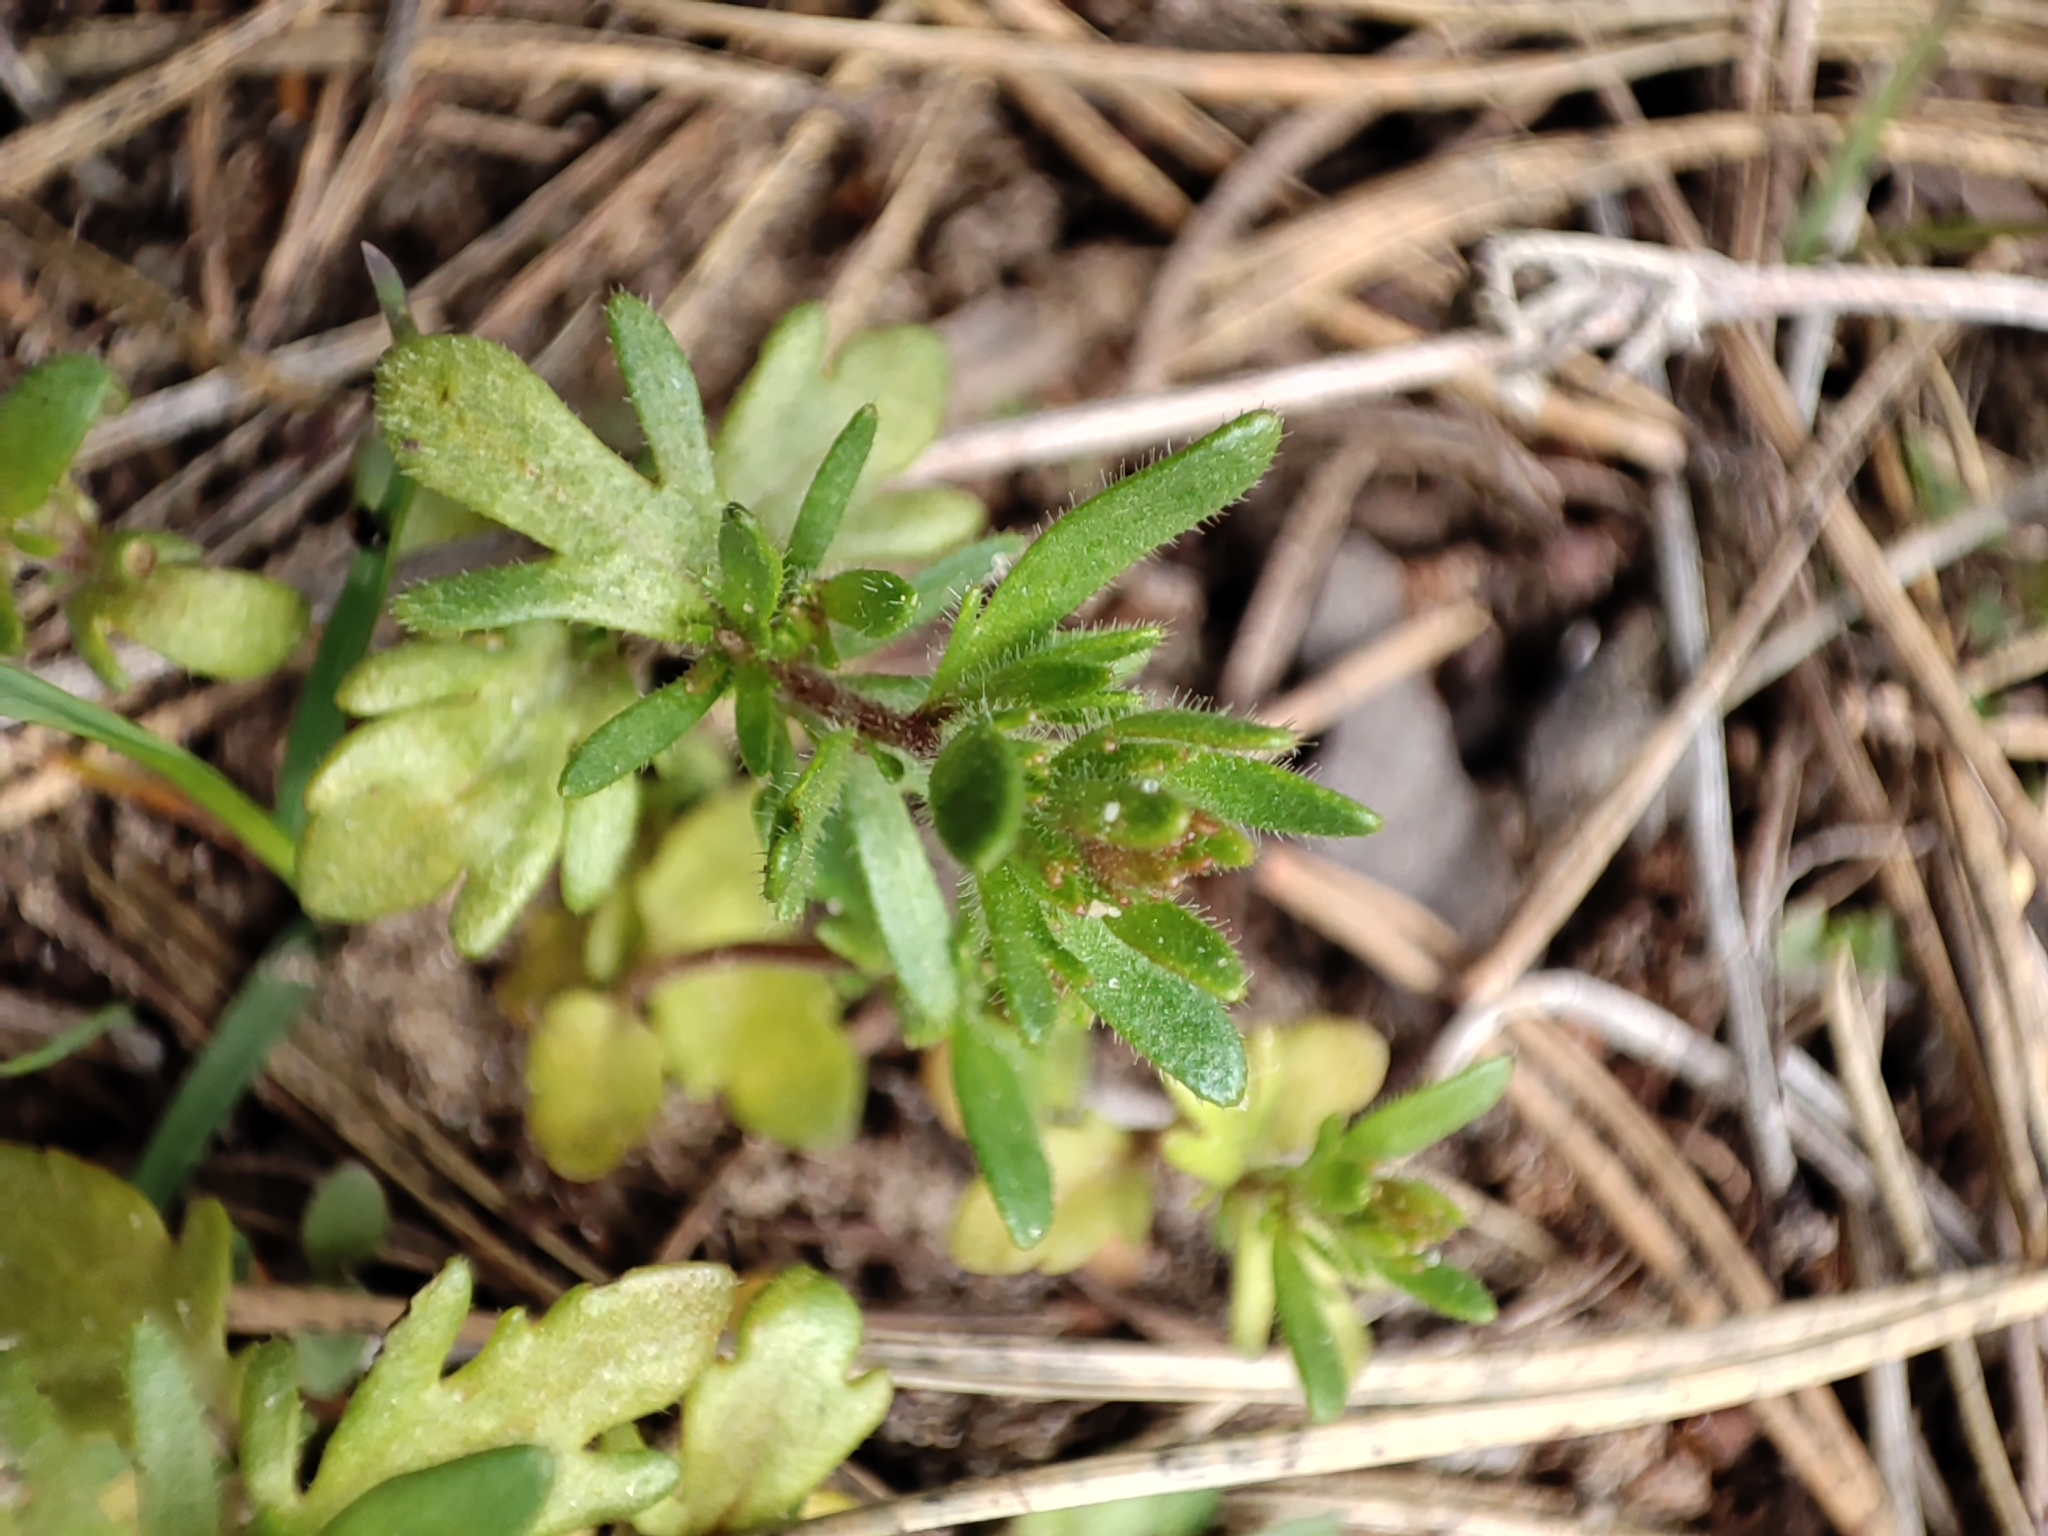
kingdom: Plantae
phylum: Tracheophyta
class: Magnoliopsida
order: Lamiales
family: Plantaginaceae
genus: Veronica
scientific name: Veronica verna
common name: Spring speedwell
